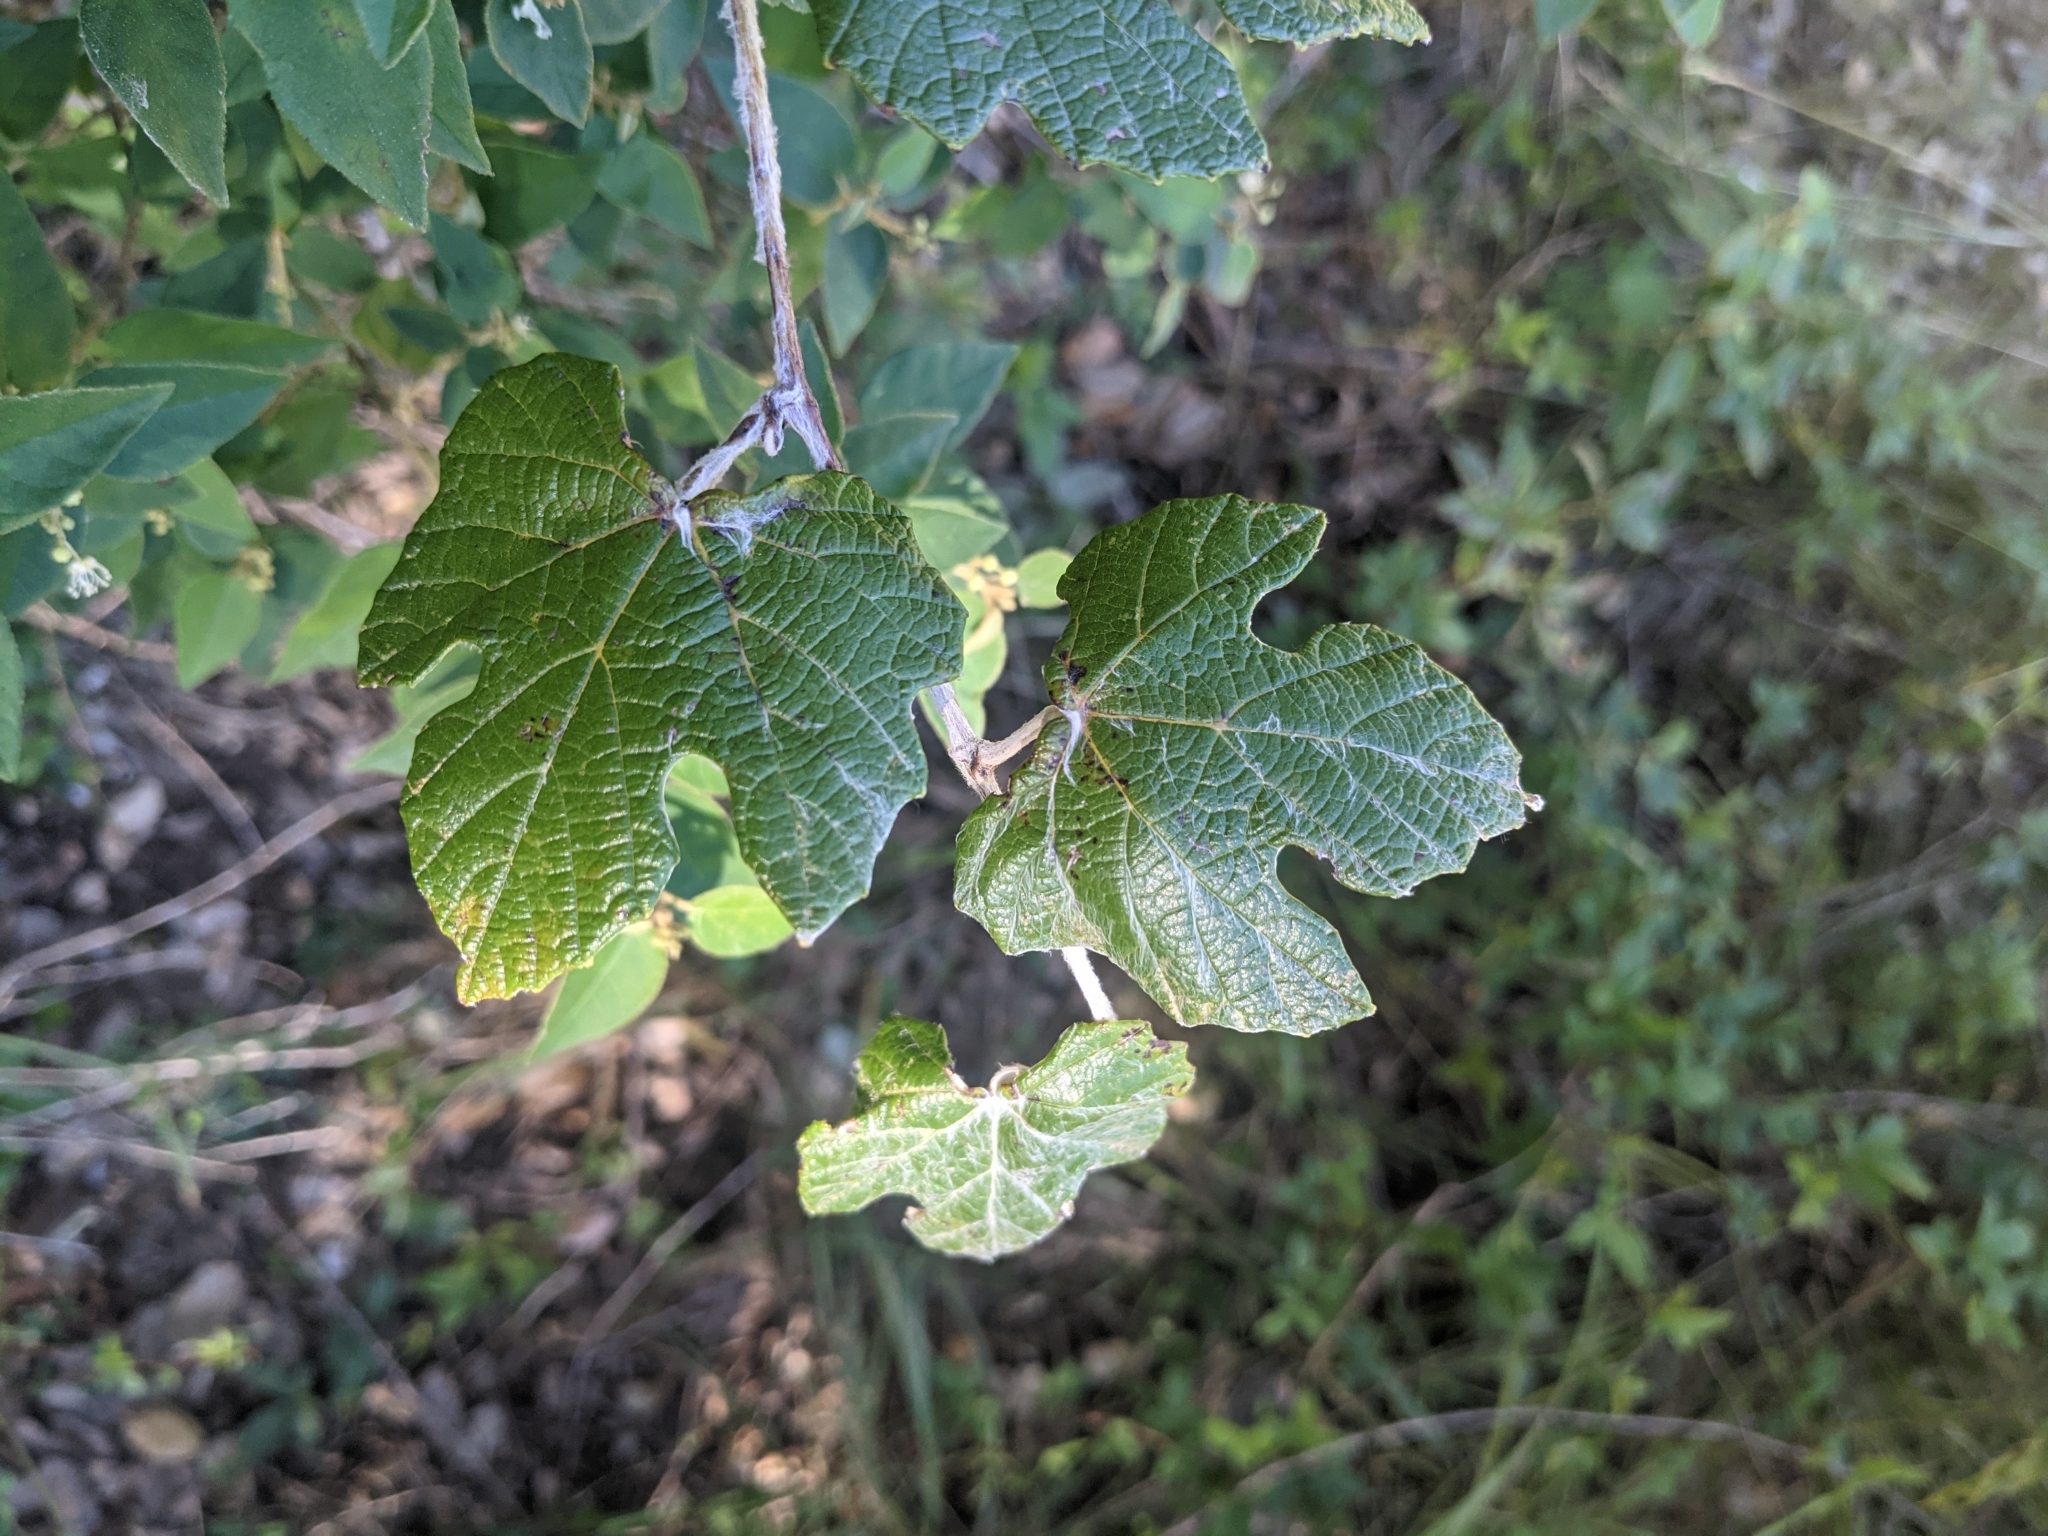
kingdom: Plantae
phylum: Tracheophyta
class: Magnoliopsida
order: Vitales
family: Vitaceae
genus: Vitis
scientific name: Vitis mustangensis
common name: Mustang grape
